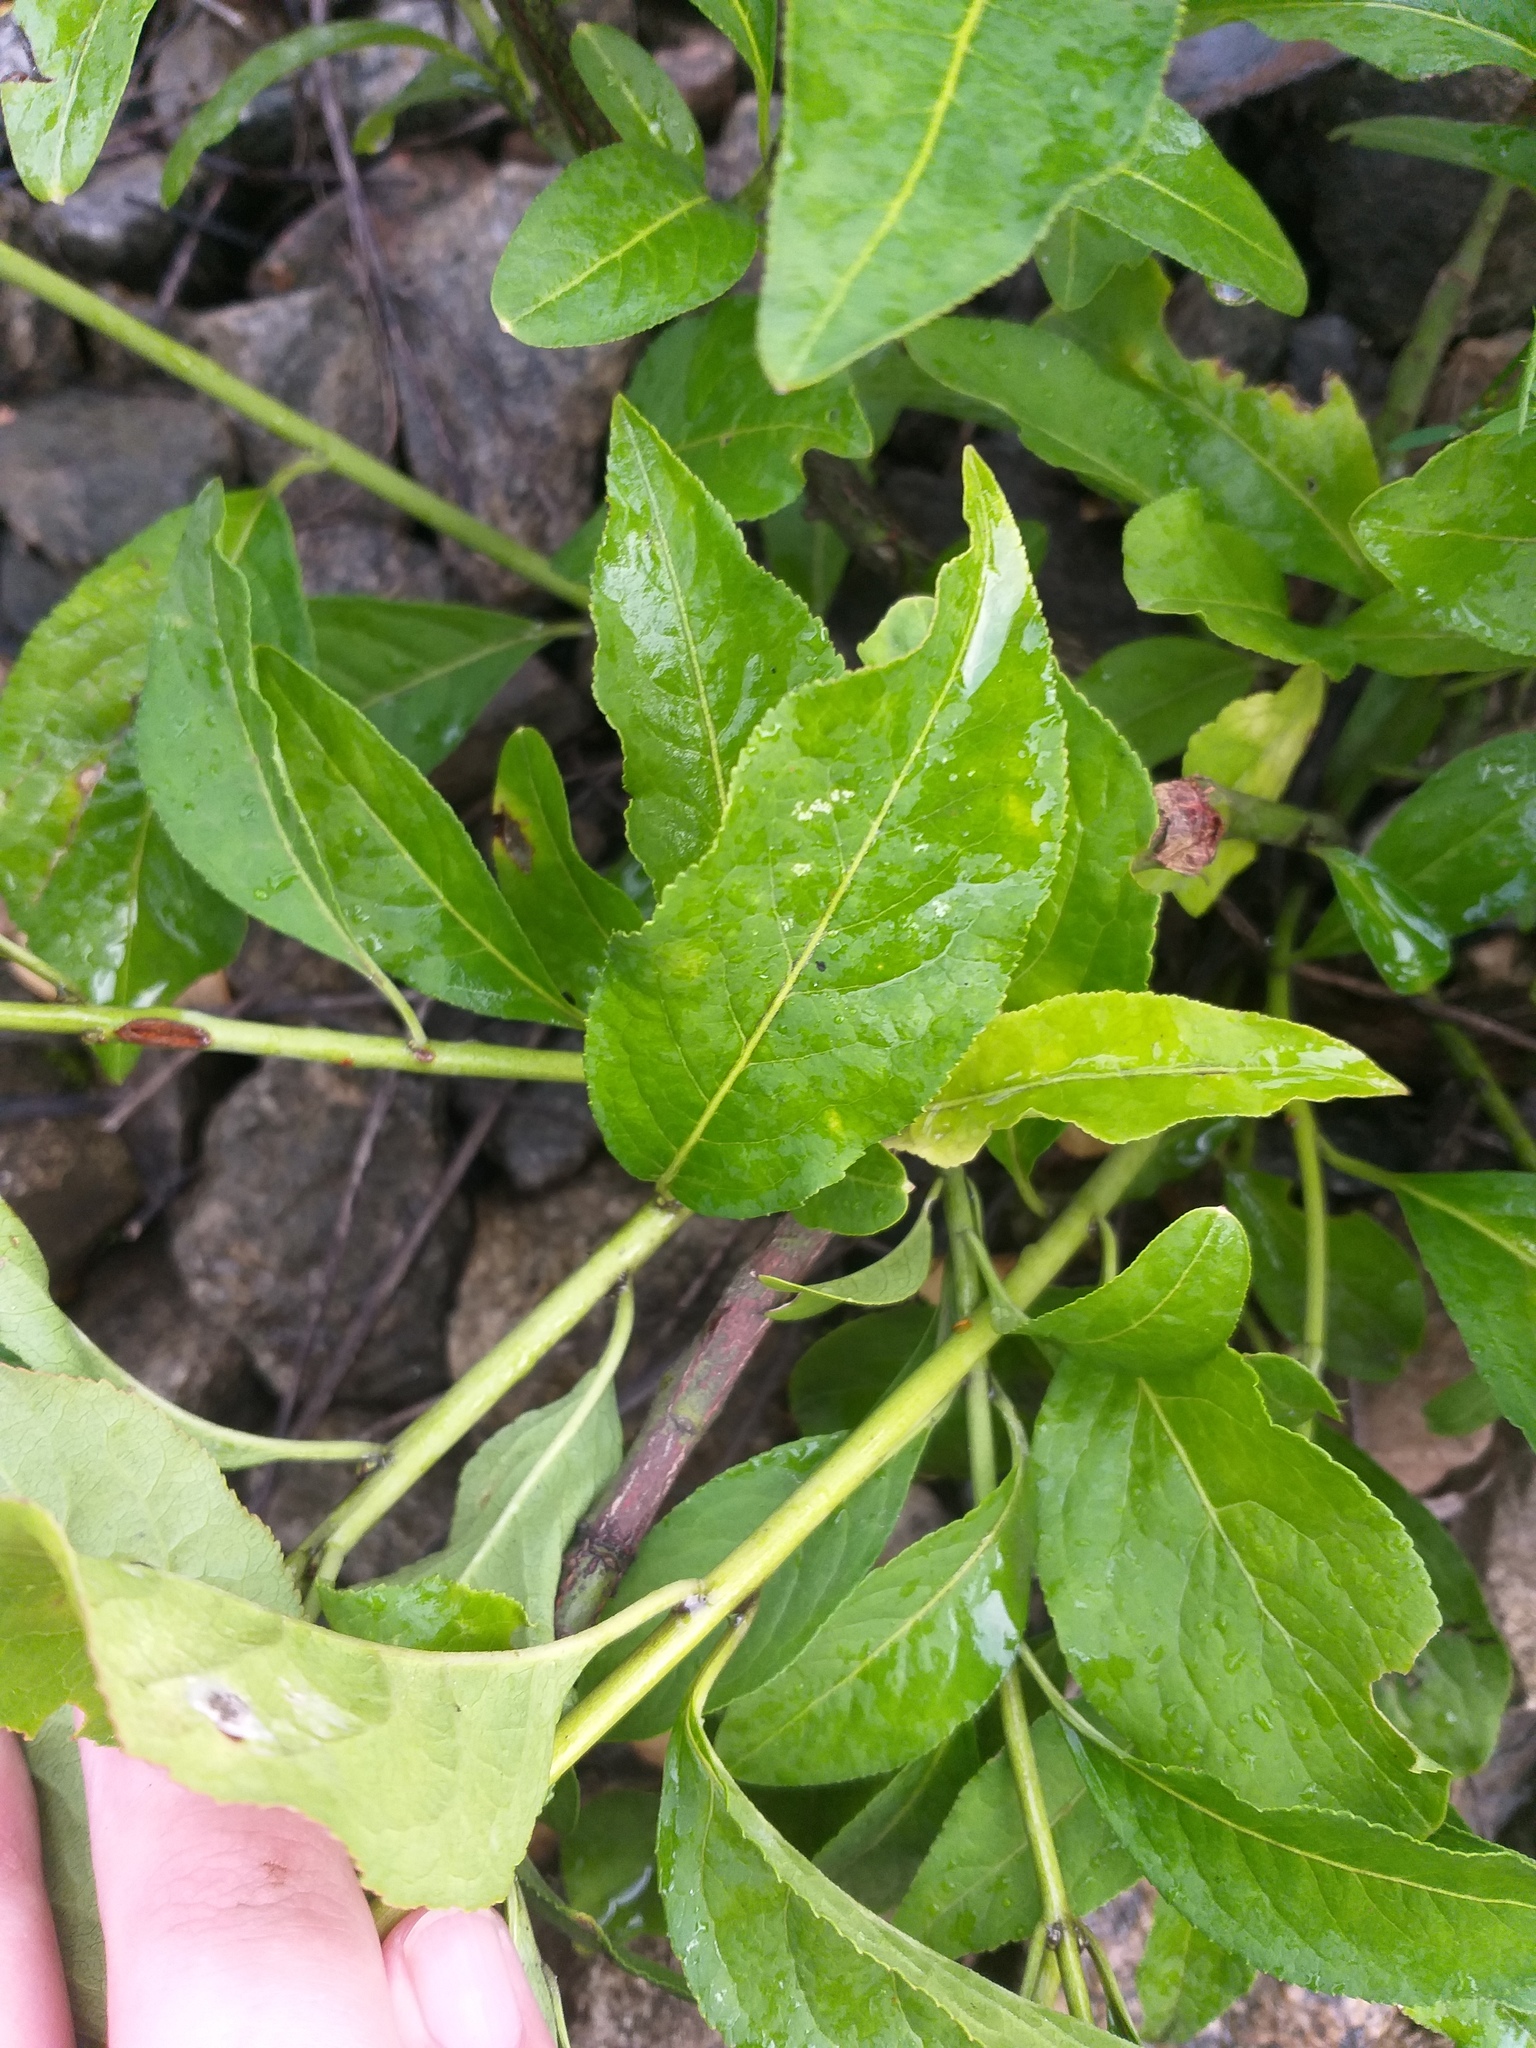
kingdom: Plantae
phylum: Tracheophyta
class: Magnoliopsida
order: Celastrales
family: Celastraceae
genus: Euonymus
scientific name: Euonymus europaeus
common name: Spindle
